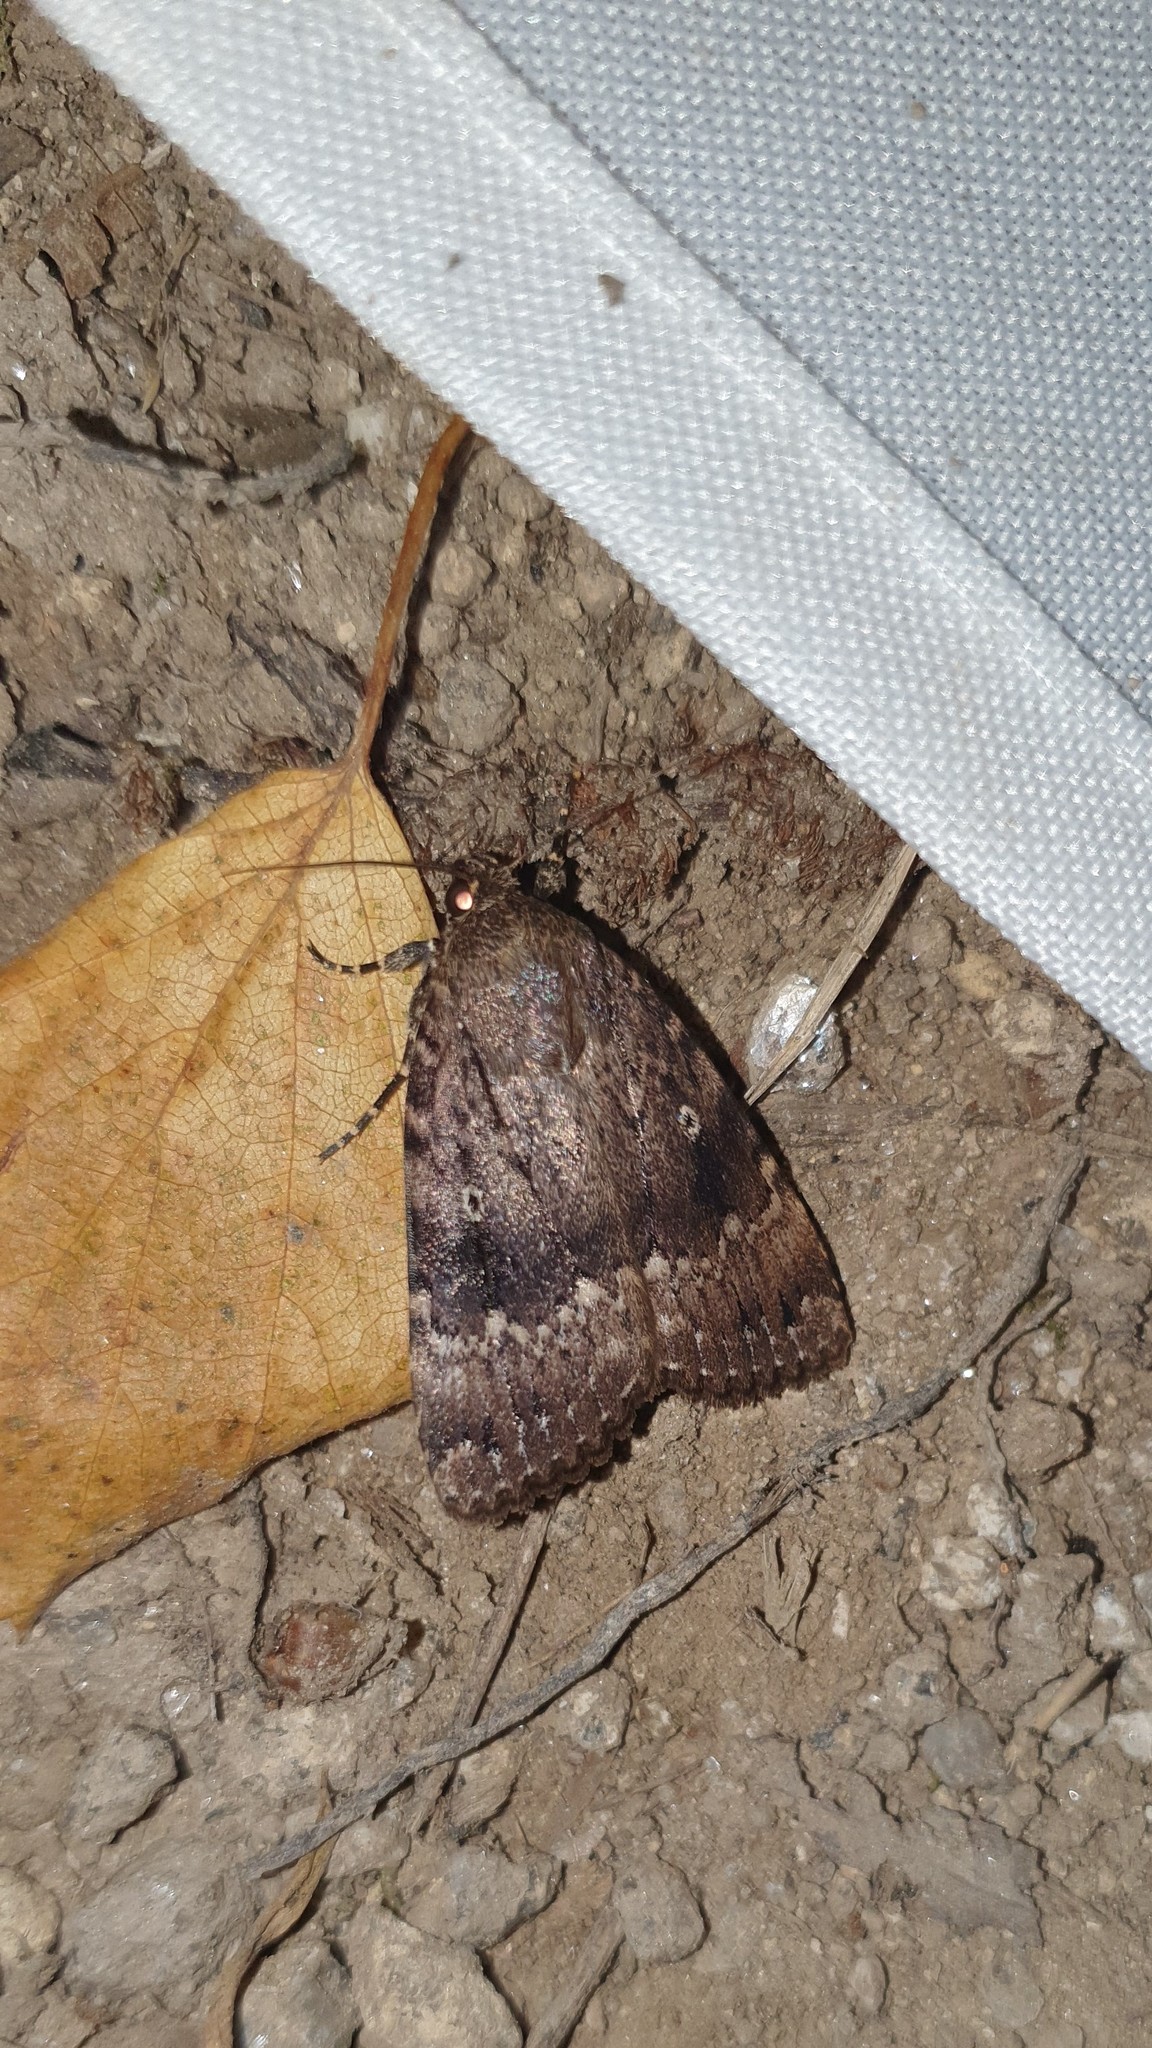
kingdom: Animalia
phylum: Arthropoda
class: Insecta
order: Lepidoptera
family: Noctuidae
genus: Amphipyra
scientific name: Amphipyra pyramidea
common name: Copper underwing
